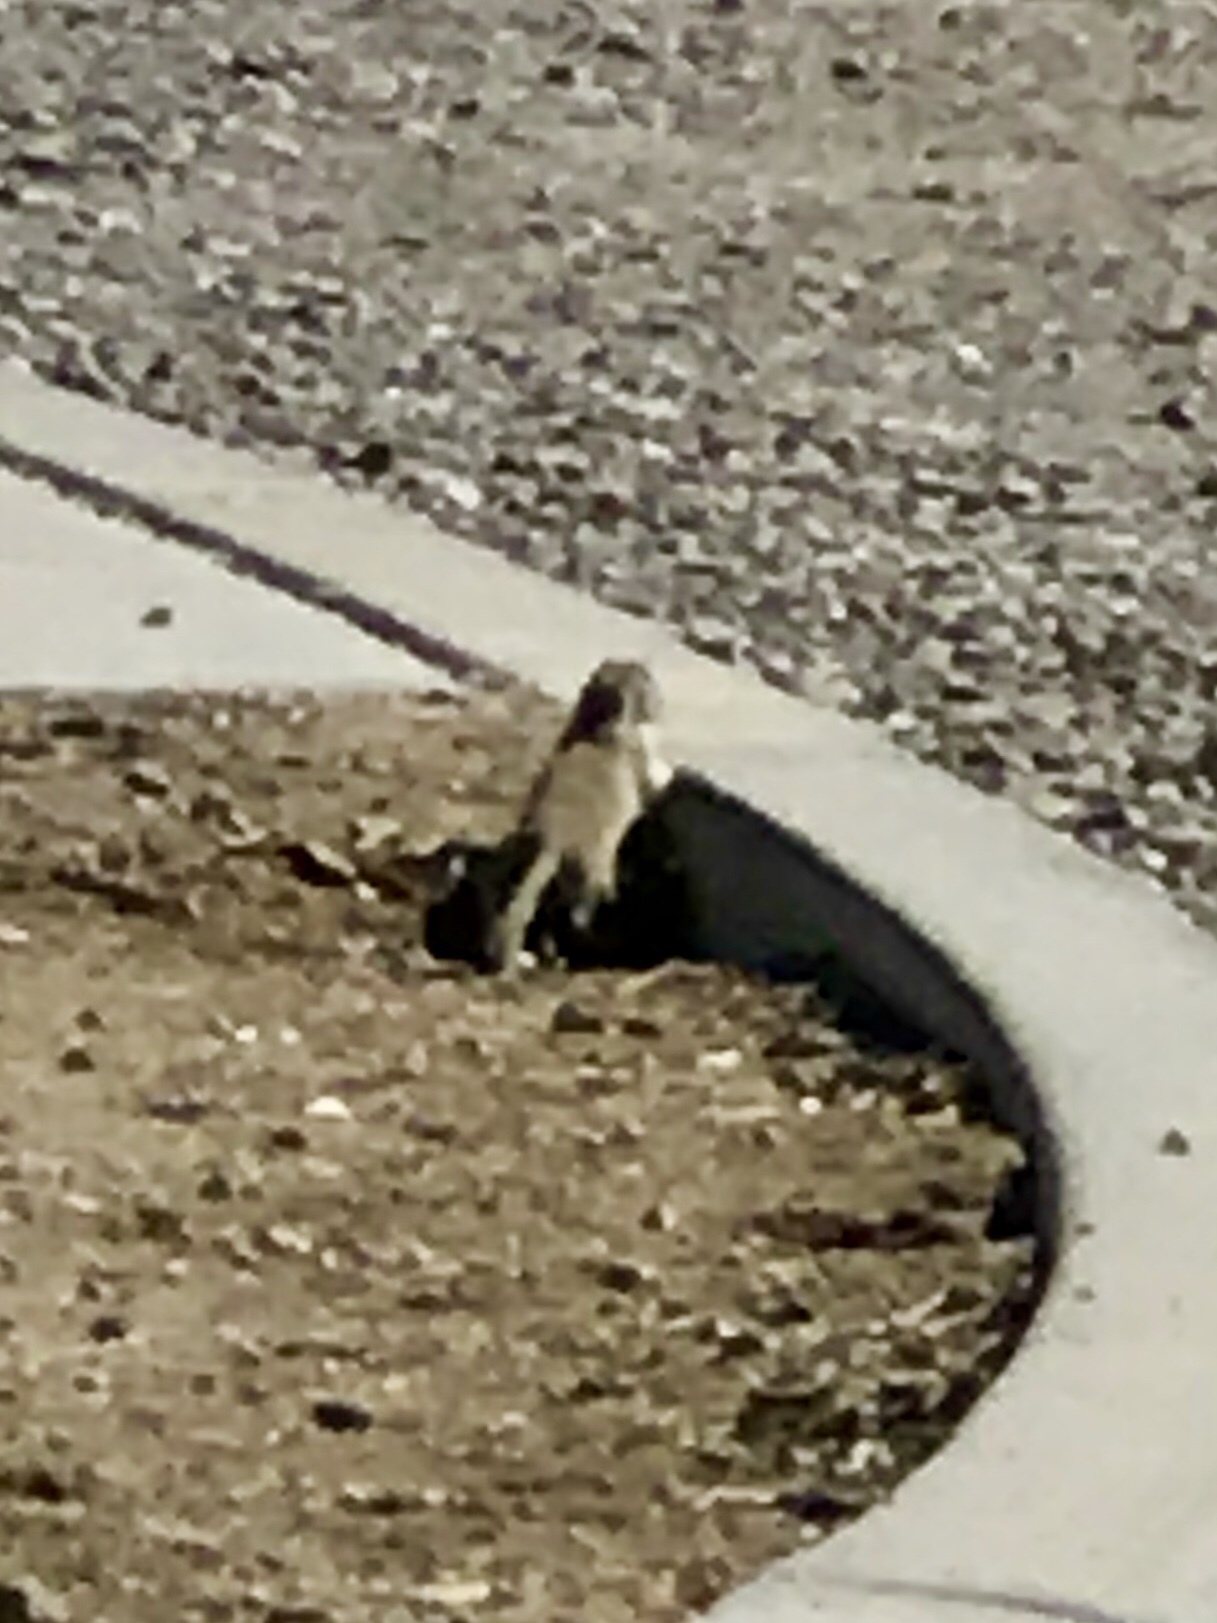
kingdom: Animalia
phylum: Chordata
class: Mammalia
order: Rodentia
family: Sciuridae
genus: Xerospermophilus
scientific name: Xerospermophilus tereticaudus
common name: Round-tailed ground squirrel
